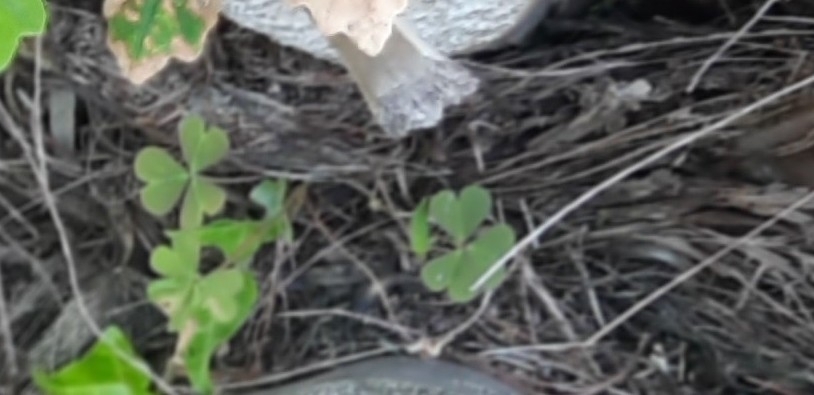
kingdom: Plantae
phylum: Tracheophyta
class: Magnoliopsida
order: Oxalidales
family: Oxalidaceae
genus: Oxalis
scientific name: Oxalis corniculata
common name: Procumbent yellow-sorrel
